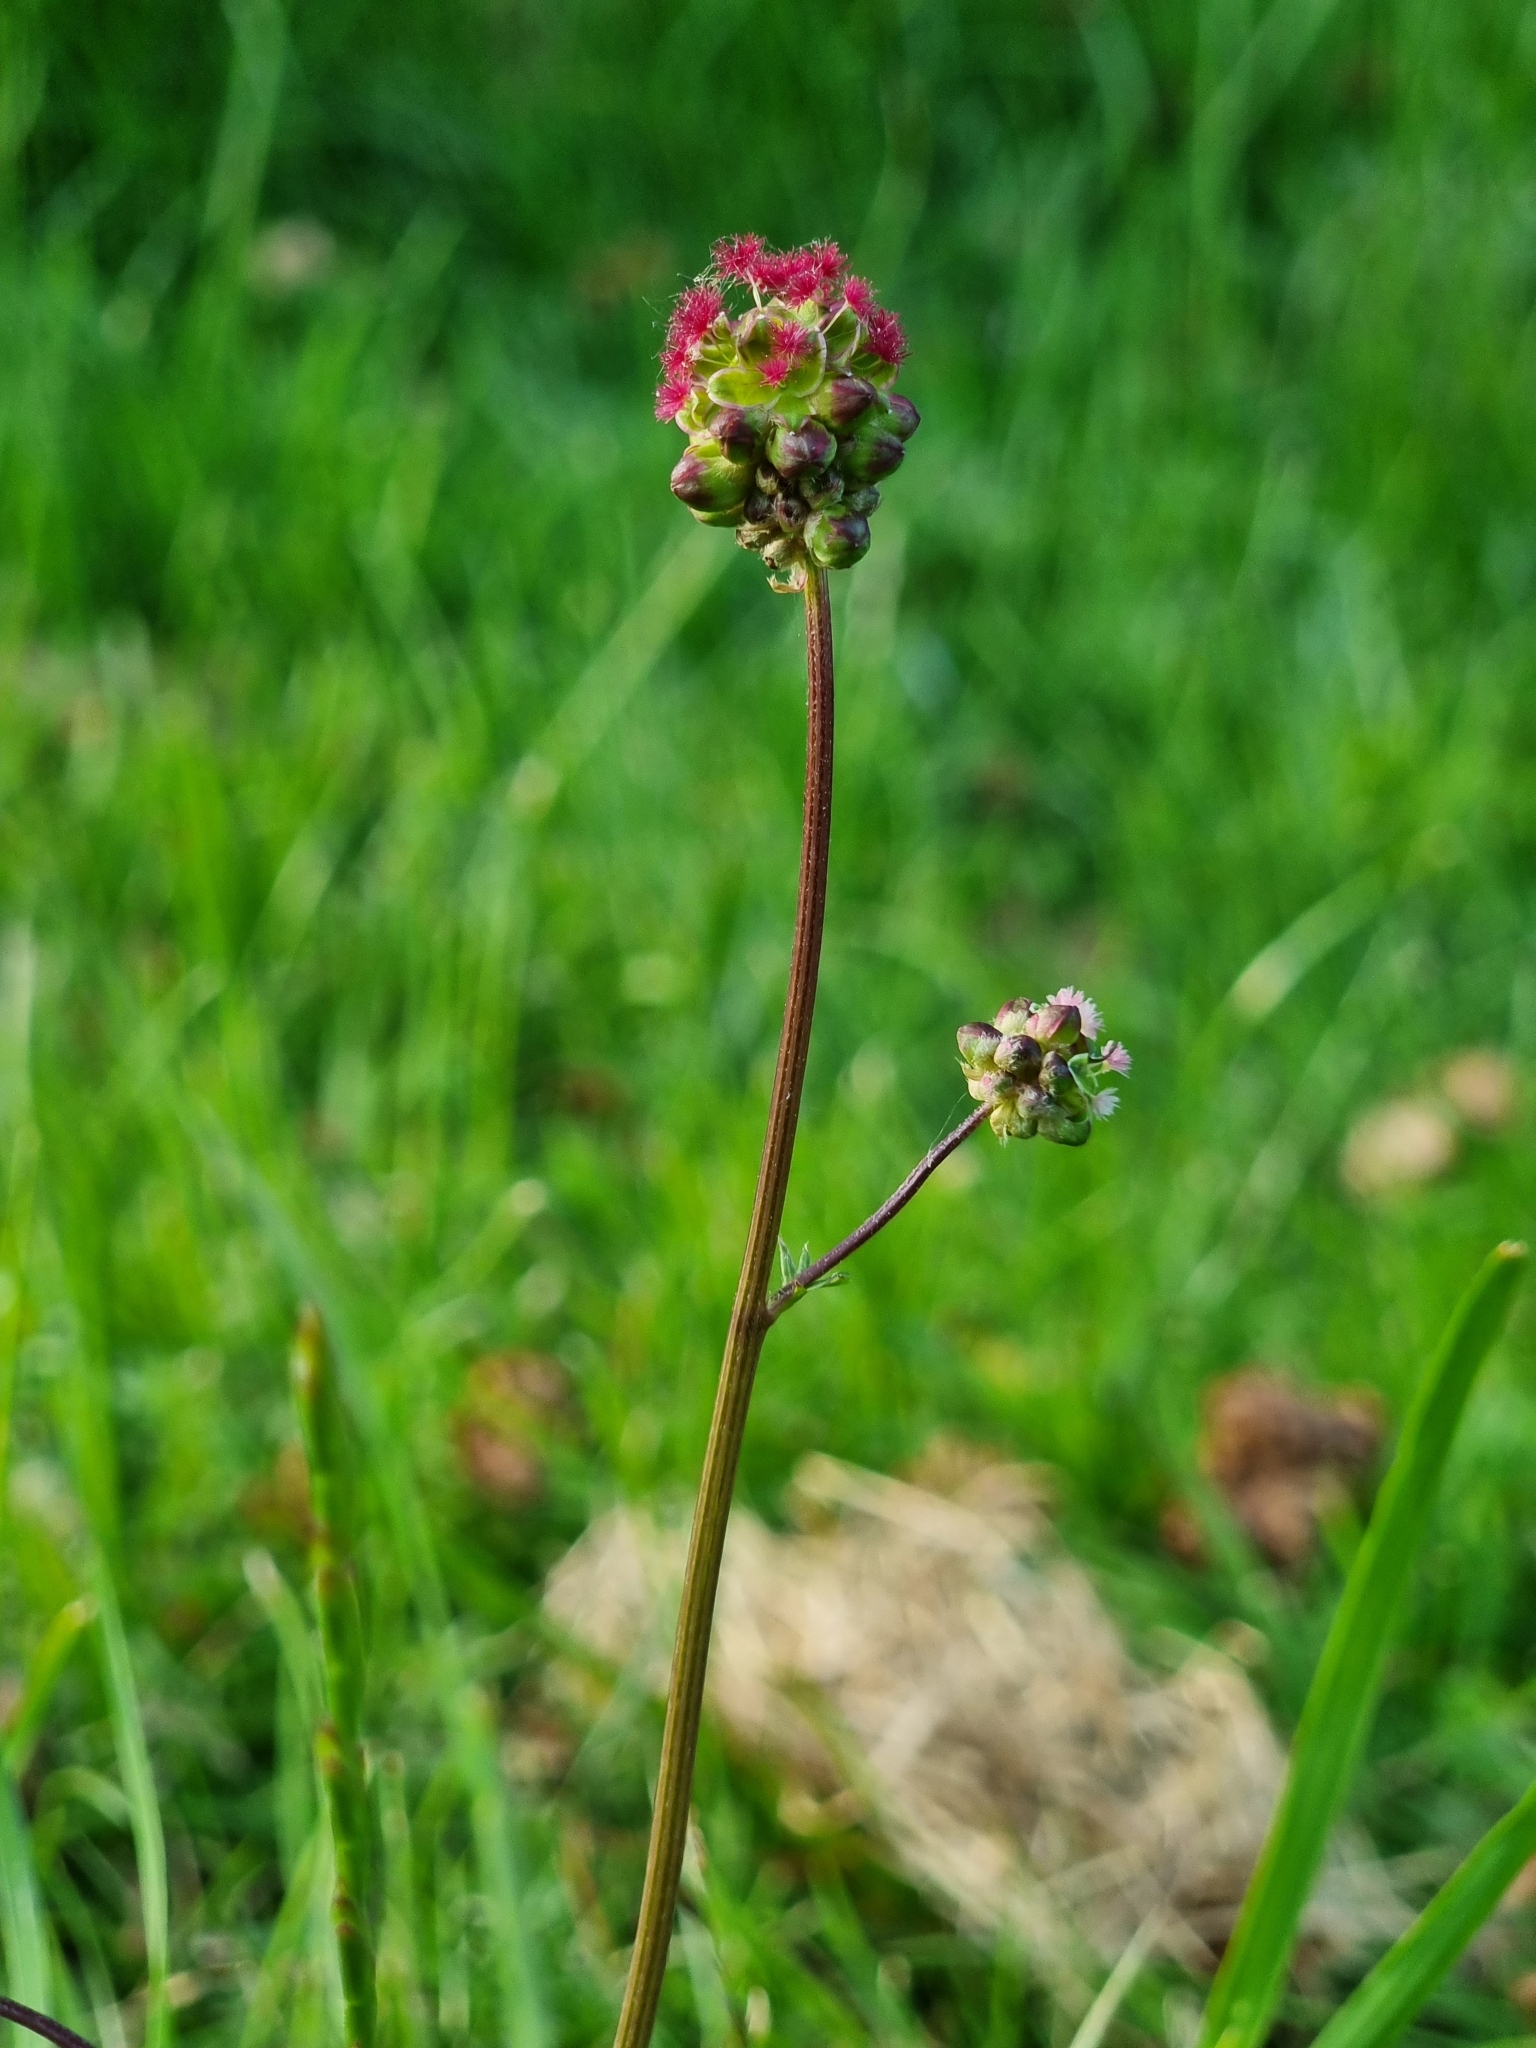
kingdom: Plantae
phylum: Tracheophyta
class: Magnoliopsida
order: Rosales
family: Rosaceae
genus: Poterium
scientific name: Poterium sanguisorba
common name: Salad burnet
